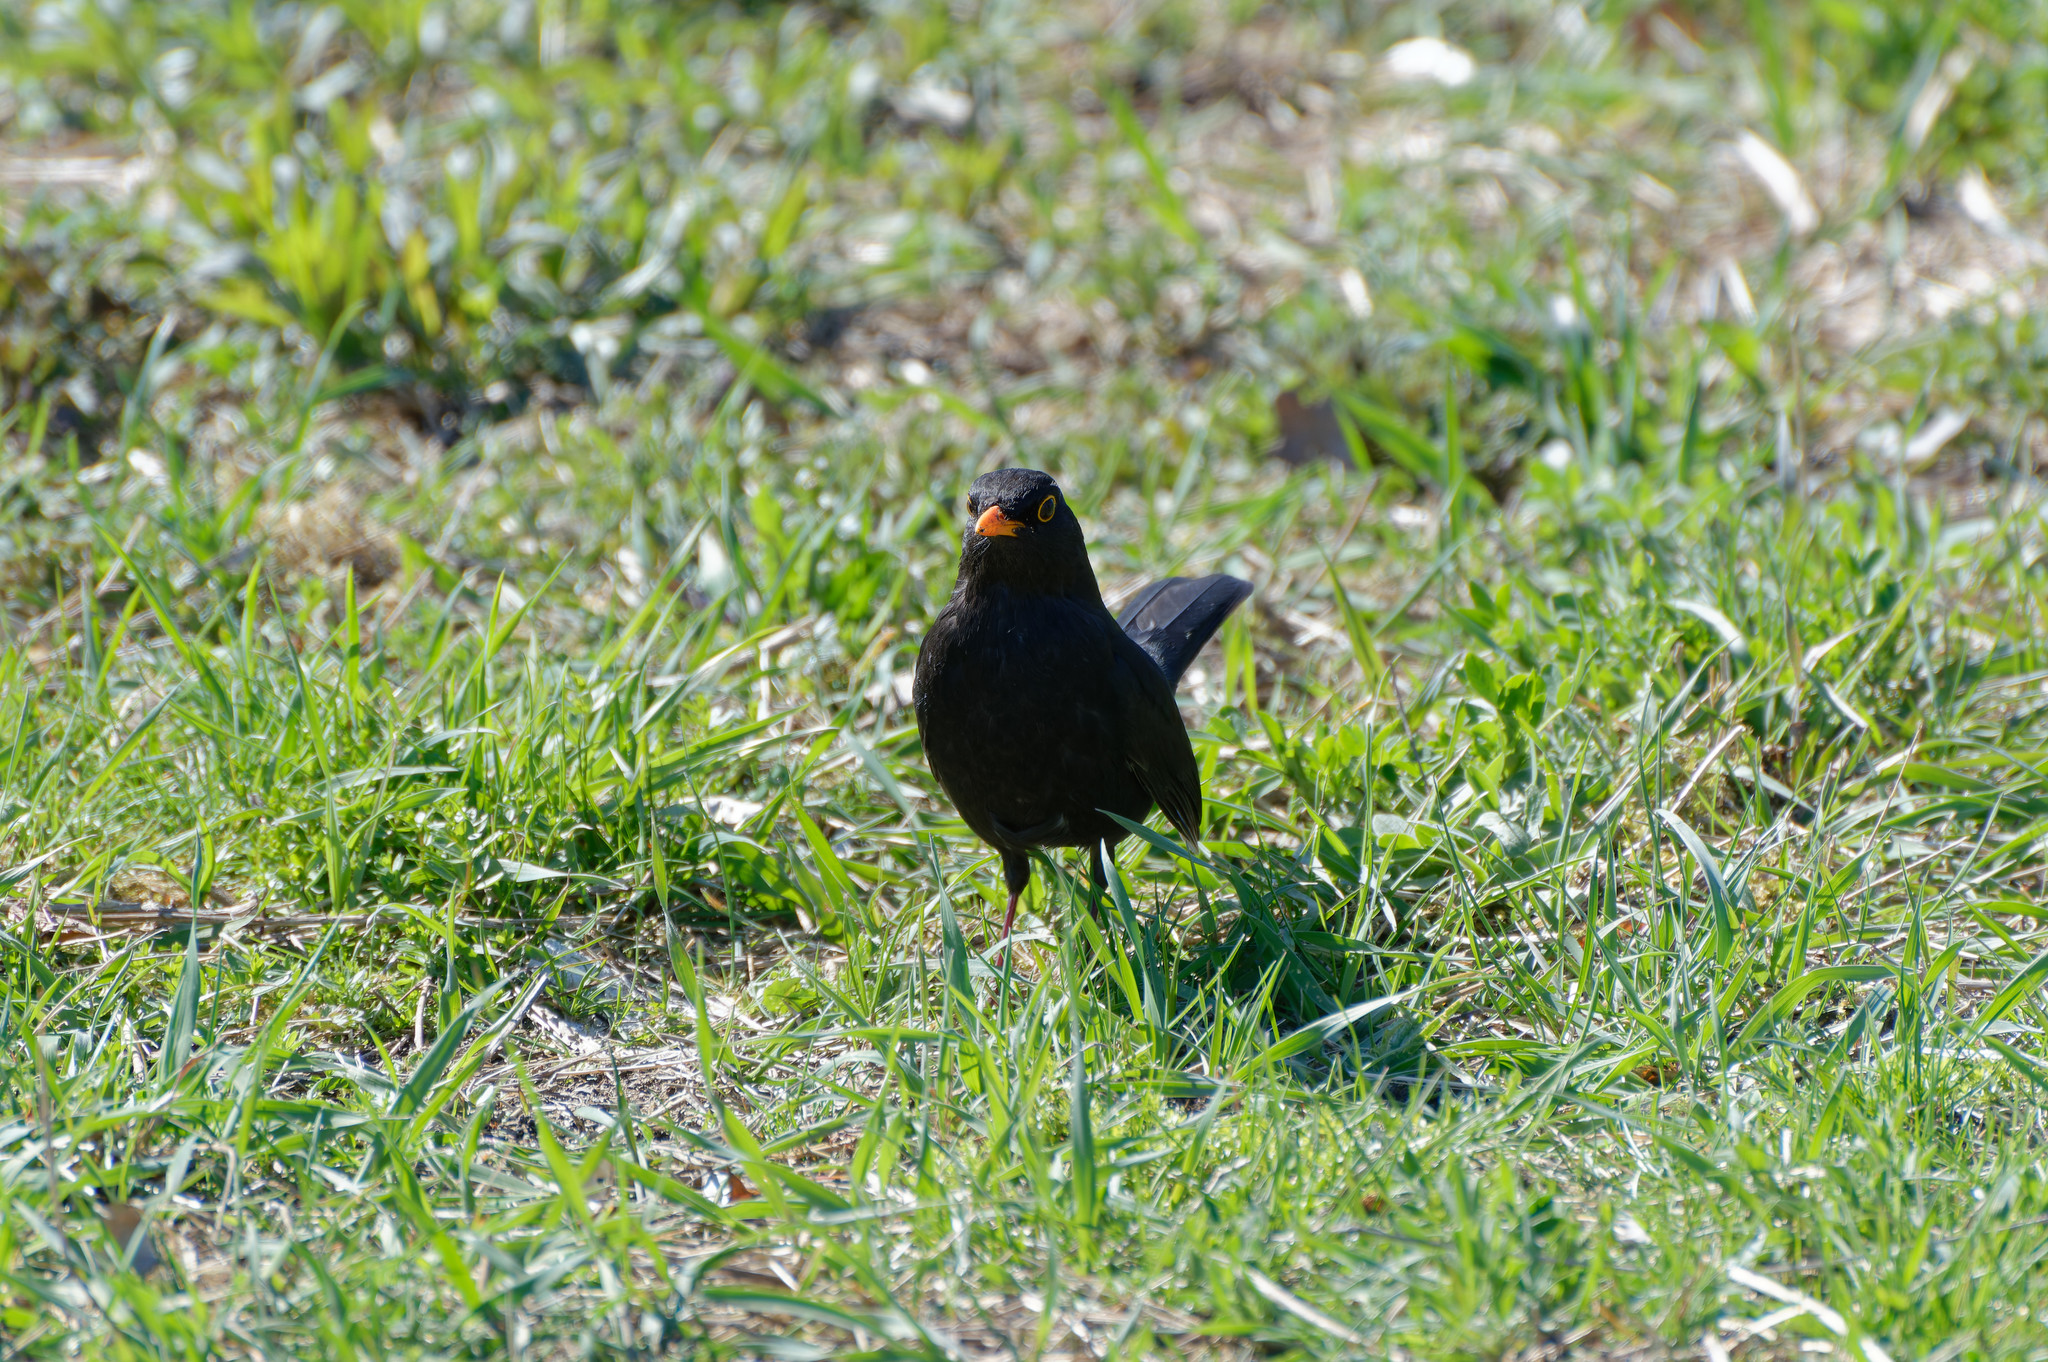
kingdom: Animalia
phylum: Chordata
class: Aves
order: Passeriformes
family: Turdidae
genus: Turdus
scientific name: Turdus merula
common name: Common blackbird
